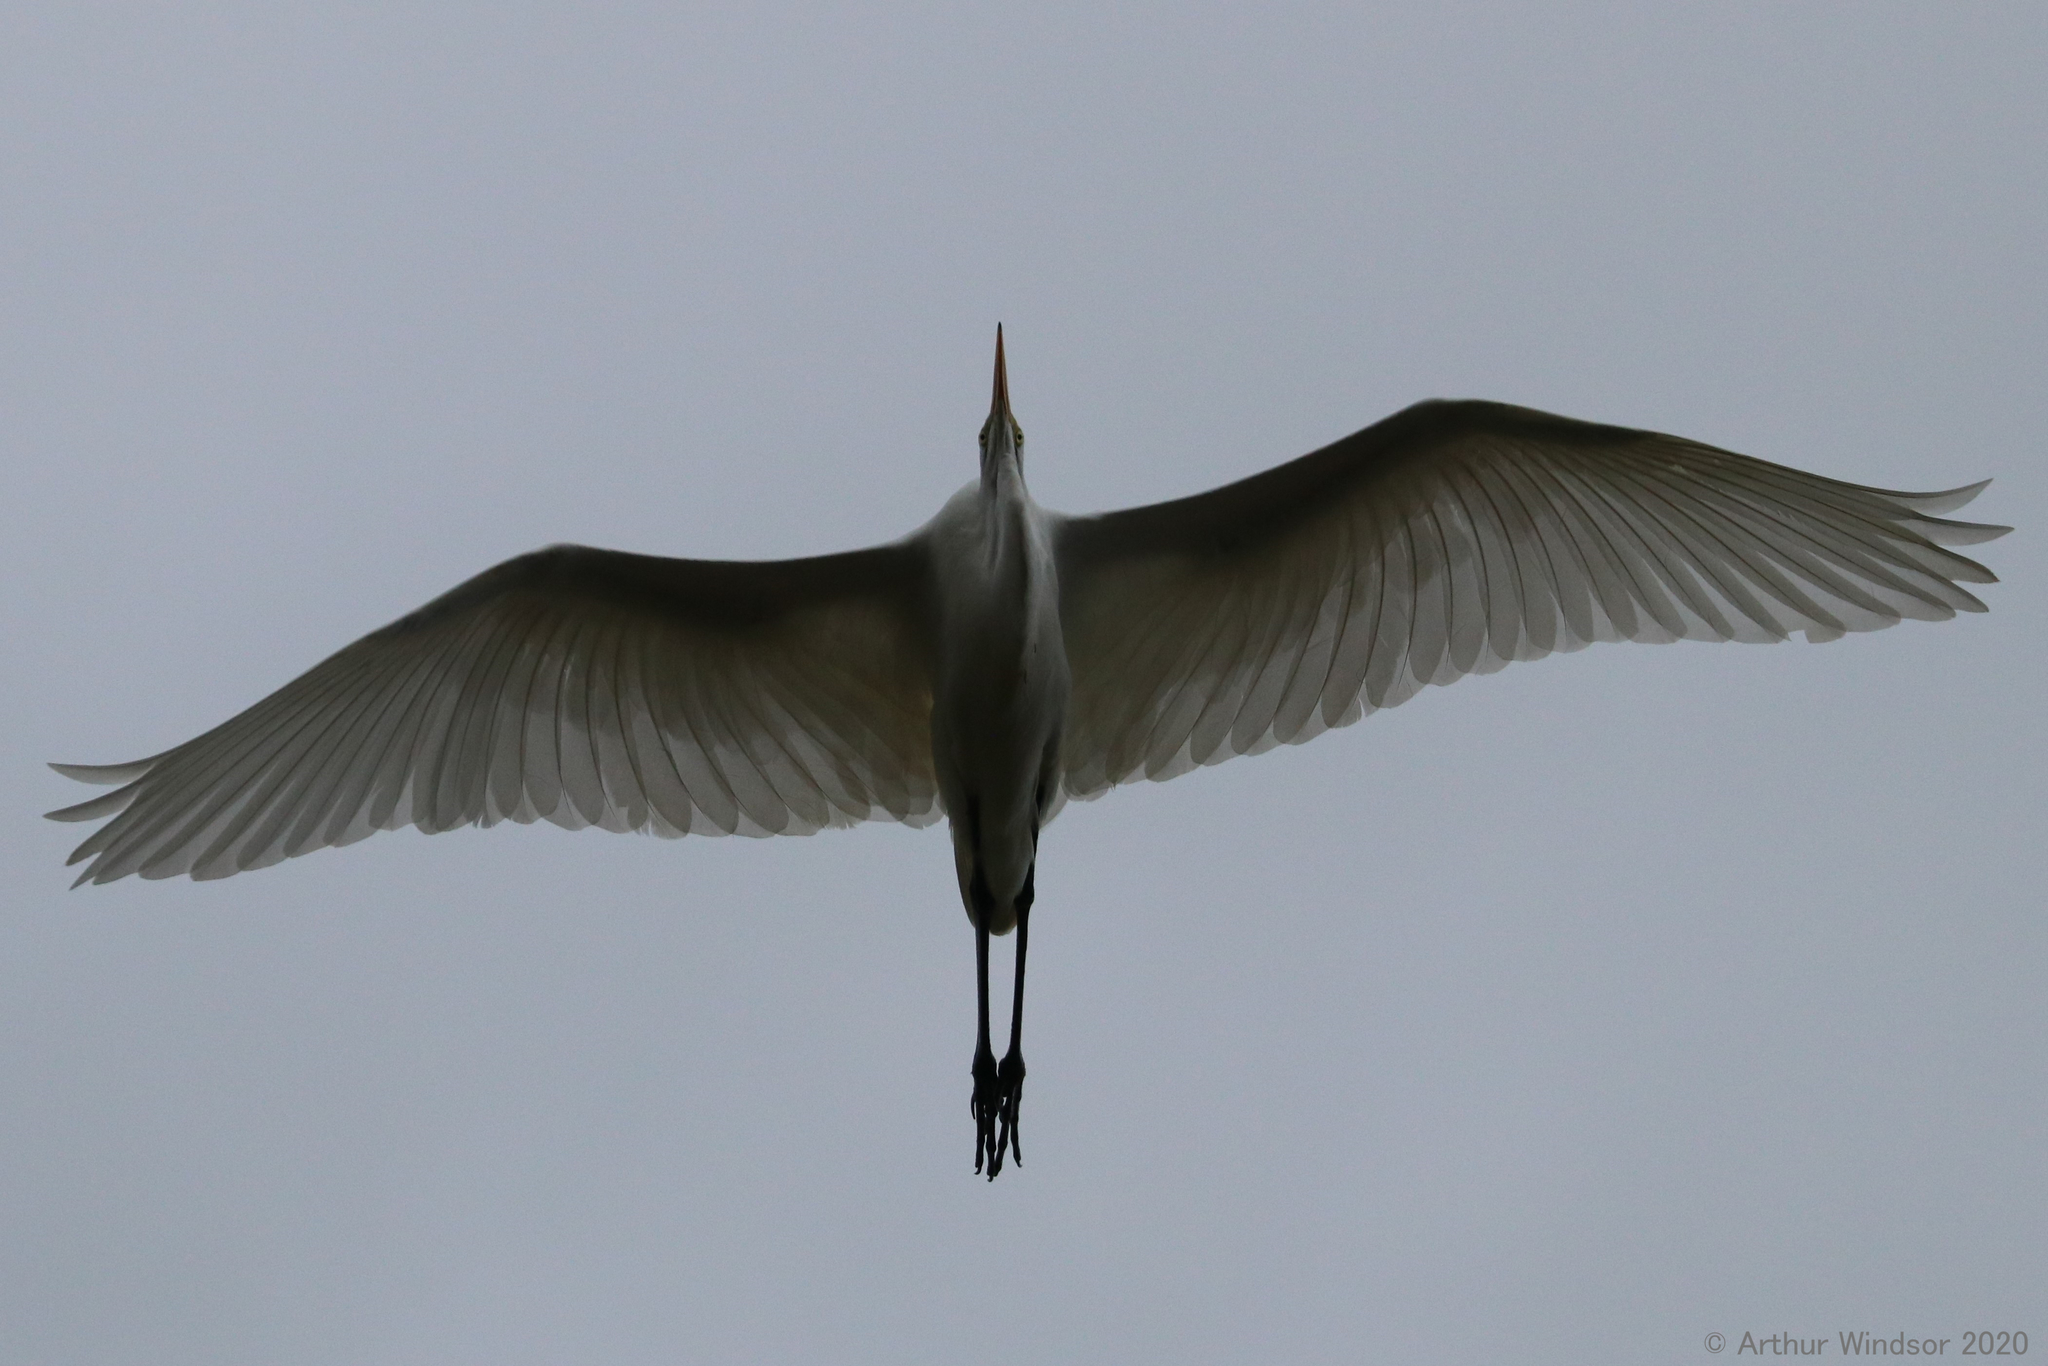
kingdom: Animalia
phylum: Chordata
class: Aves
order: Pelecaniformes
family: Ardeidae
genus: Ardea
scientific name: Ardea alba
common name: Great egret
